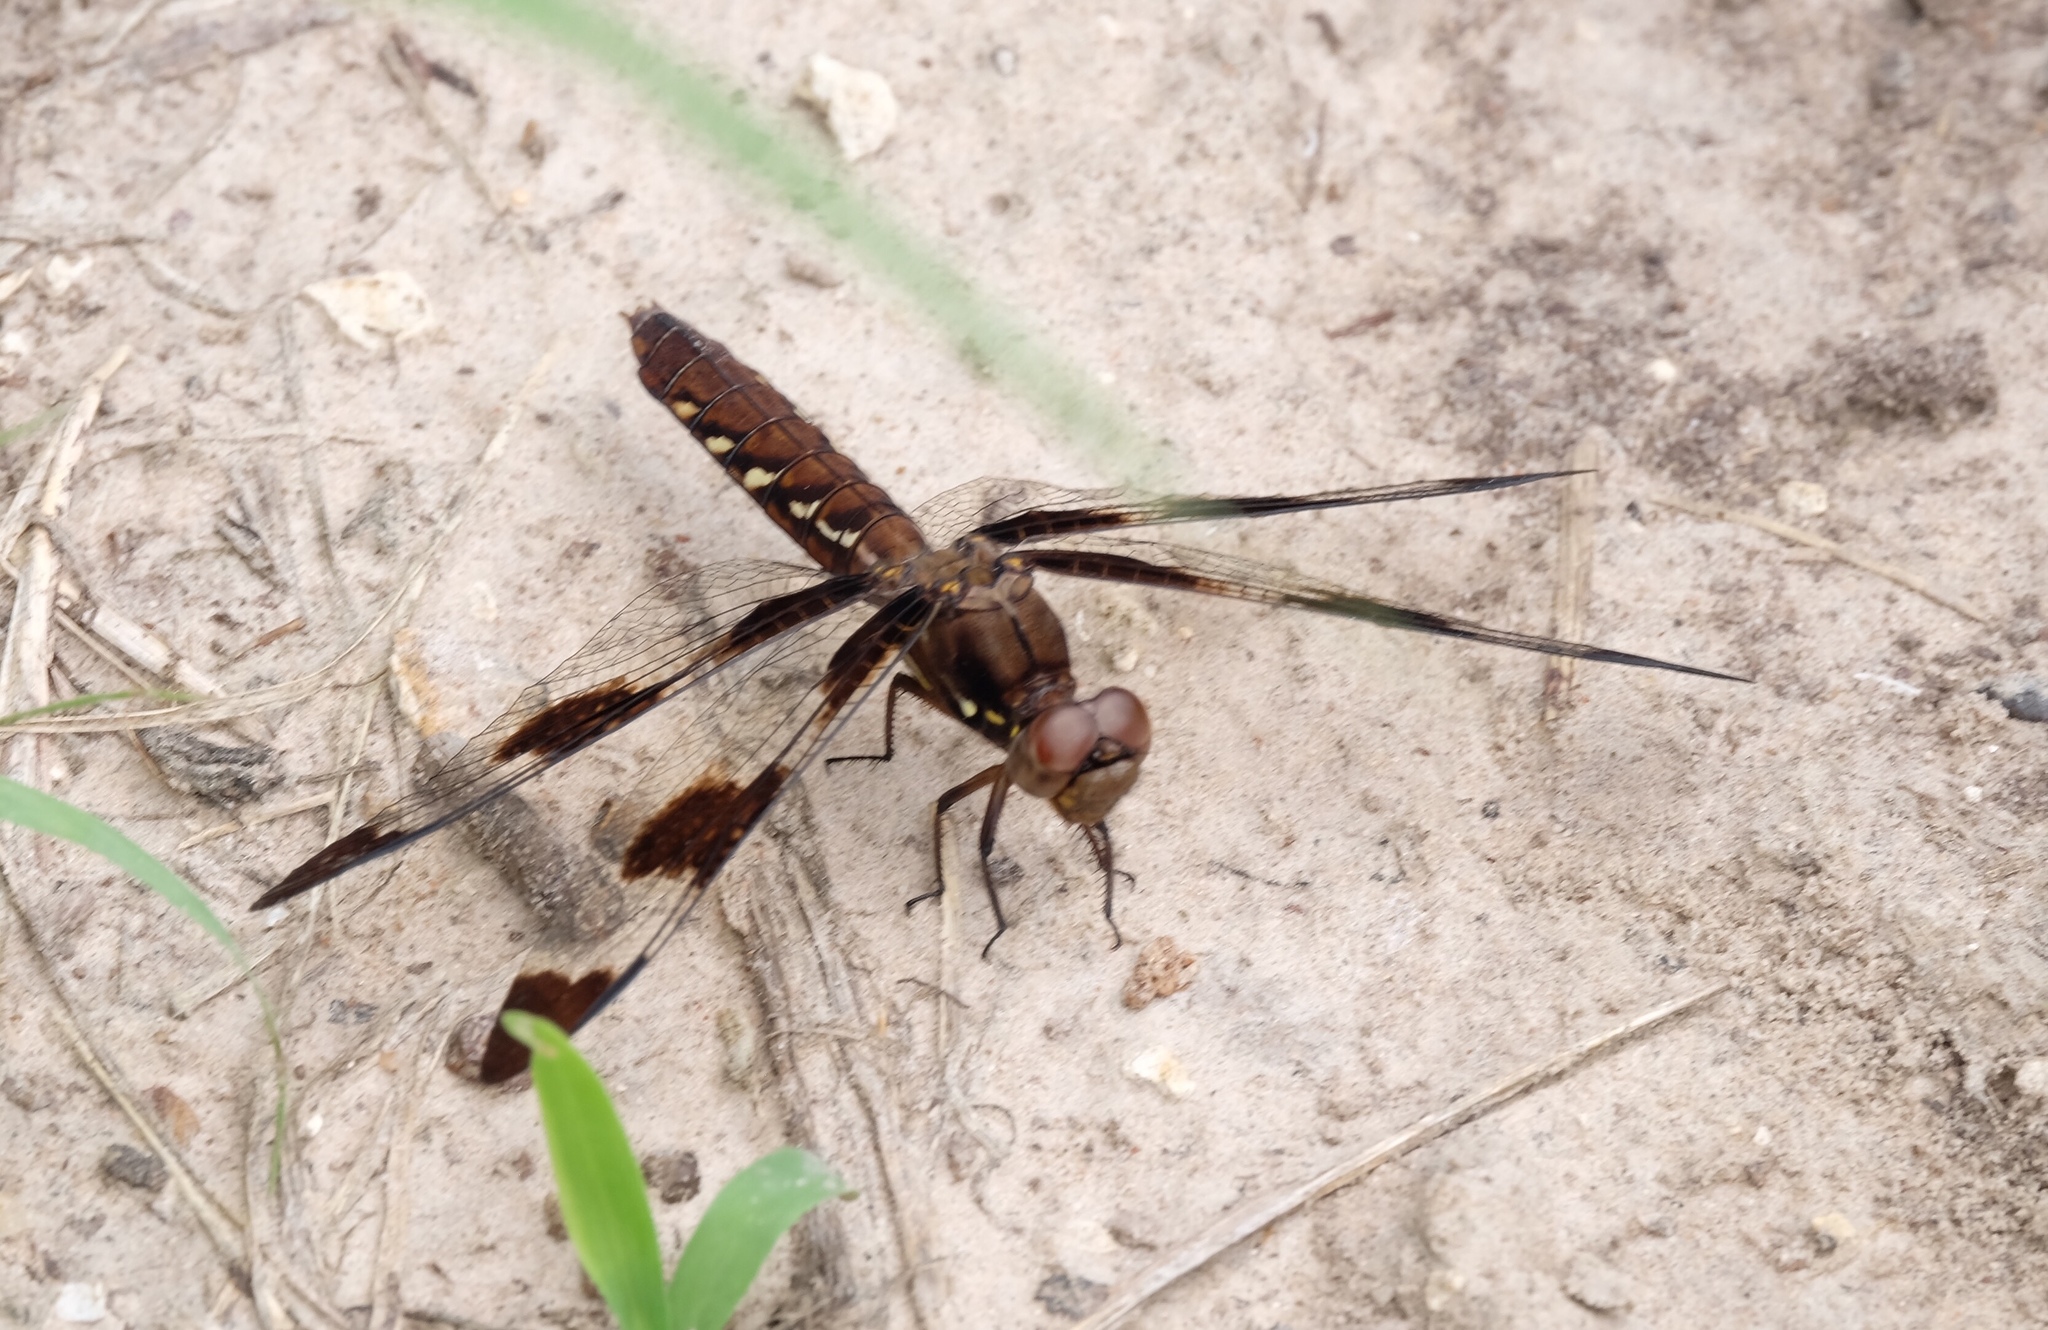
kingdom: Animalia
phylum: Arthropoda
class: Insecta
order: Odonata
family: Libellulidae
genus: Plathemis
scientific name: Plathemis lydia
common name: Common whitetail
